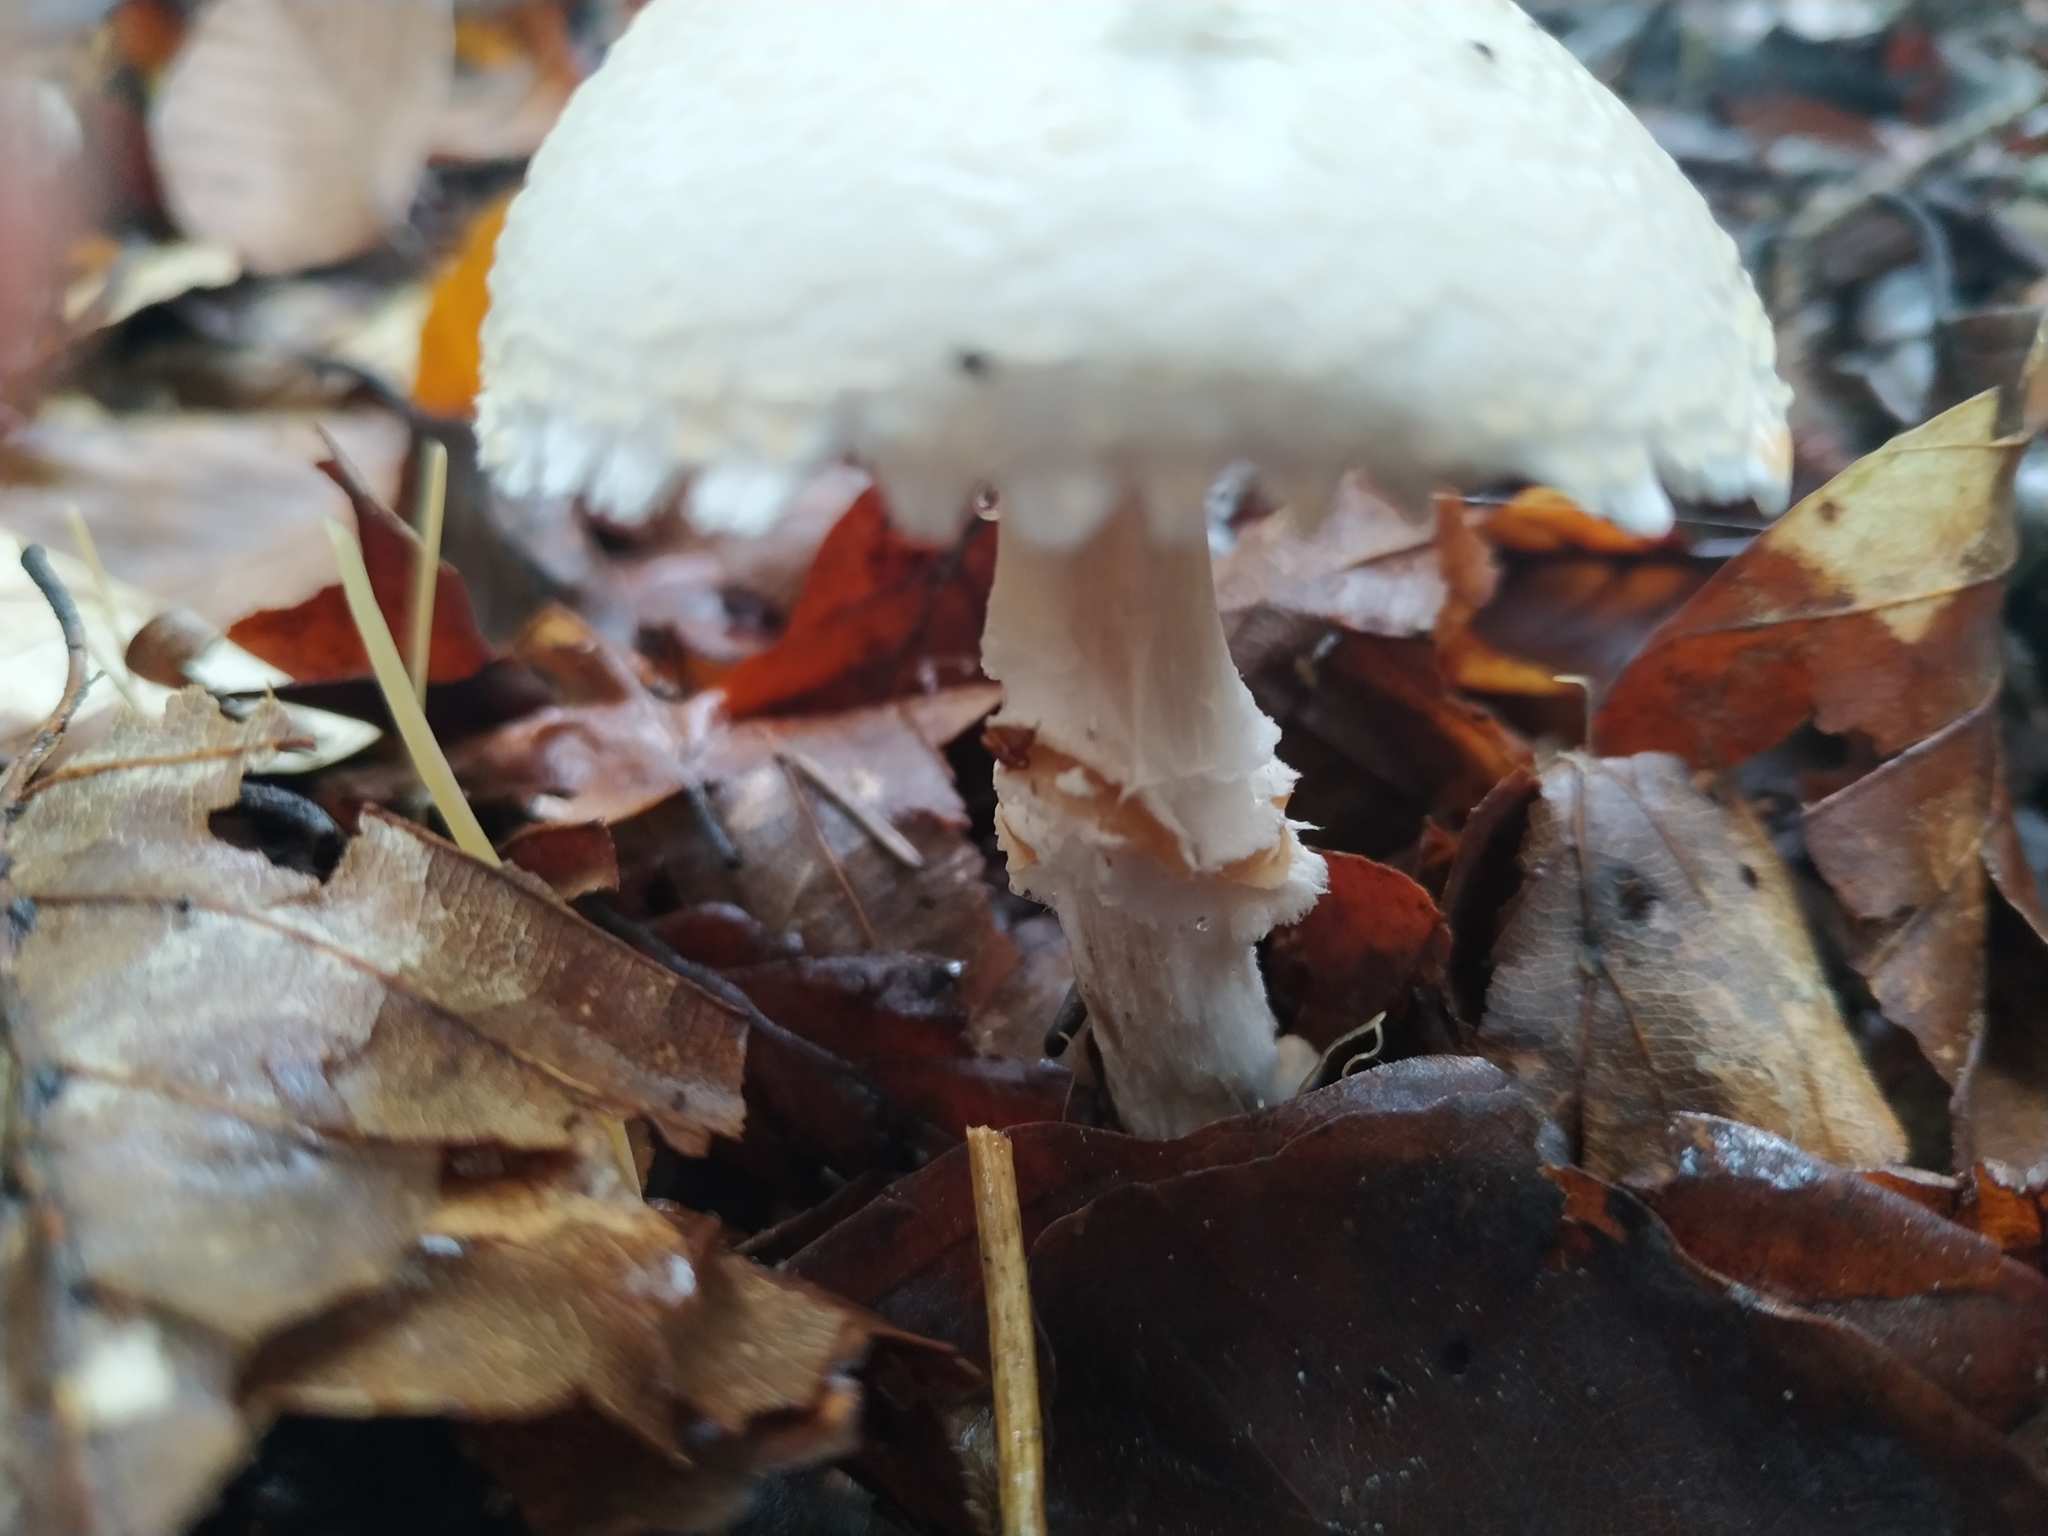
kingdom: Fungi
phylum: Basidiomycota
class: Agaricomycetes
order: Agaricales
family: Agaricaceae
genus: Lepiota
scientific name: Lepiota clypeolaria
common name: Shield dapperling
